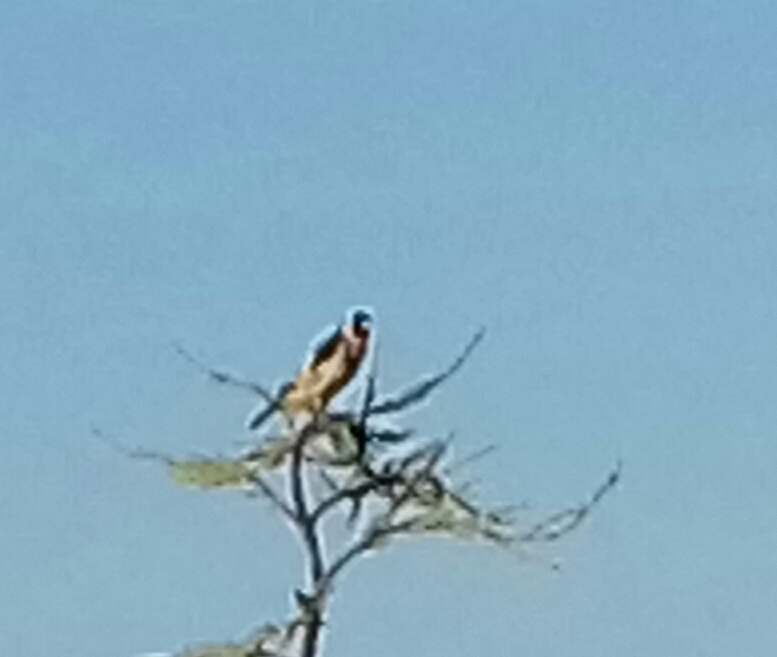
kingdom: Animalia
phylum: Chordata
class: Aves
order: Passeriformes
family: Fringillidae
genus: Carduelis
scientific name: Carduelis carduelis
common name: European goldfinch
